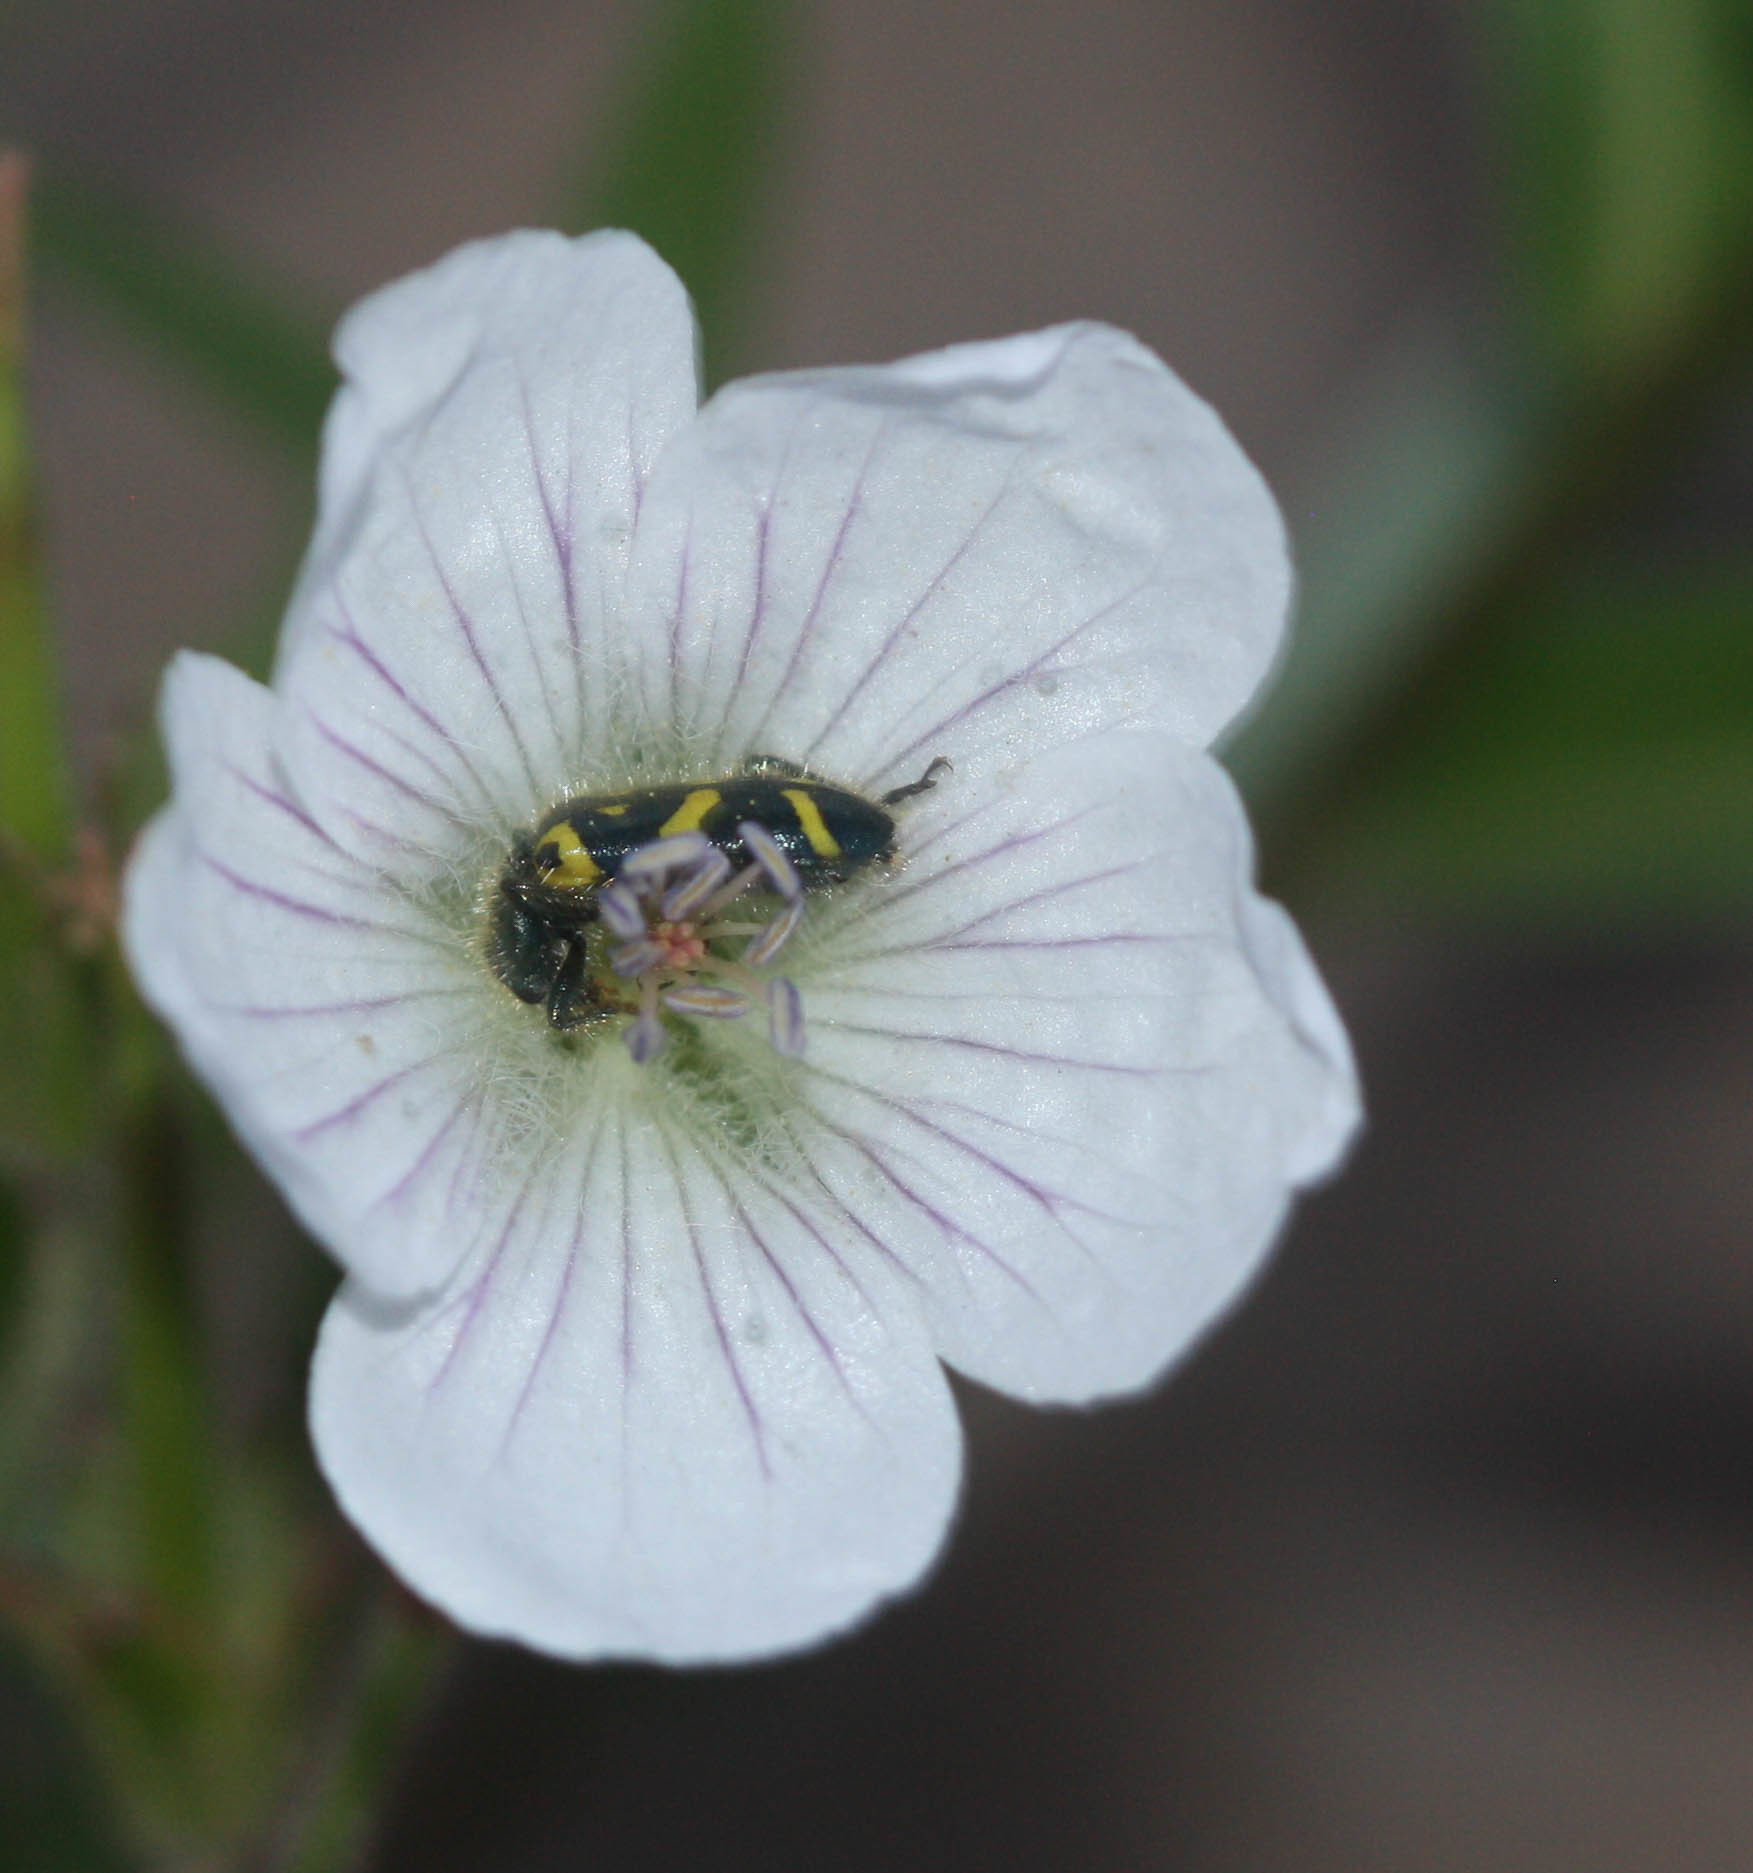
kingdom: Animalia
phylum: Arthropoda
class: Insecta
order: Coleoptera
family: Cleridae
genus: Trichodes
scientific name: Trichodes ornatus
